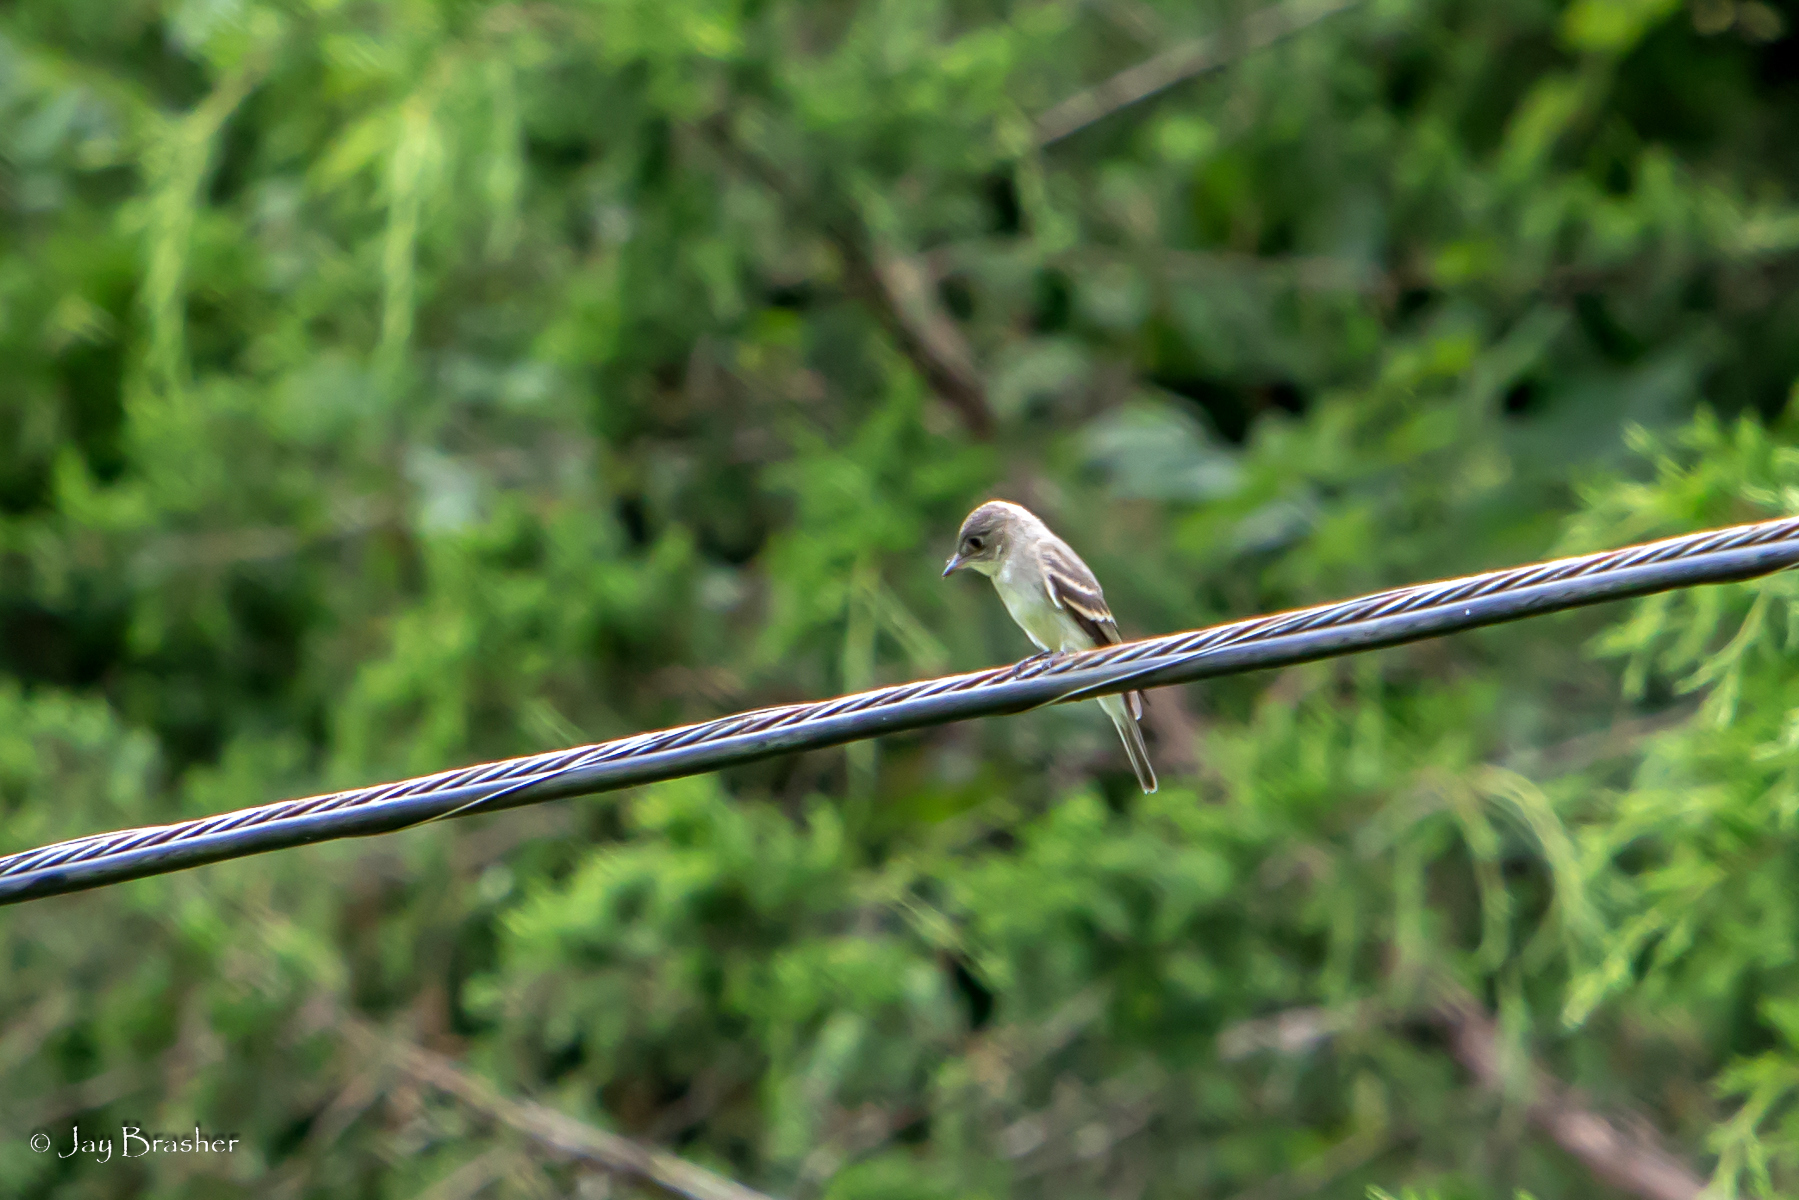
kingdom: Animalia
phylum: Chordata
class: Aves
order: Passeriformes
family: Tyrannidae
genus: Contopus
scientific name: Contopus virens
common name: Eastern wood-pewee
